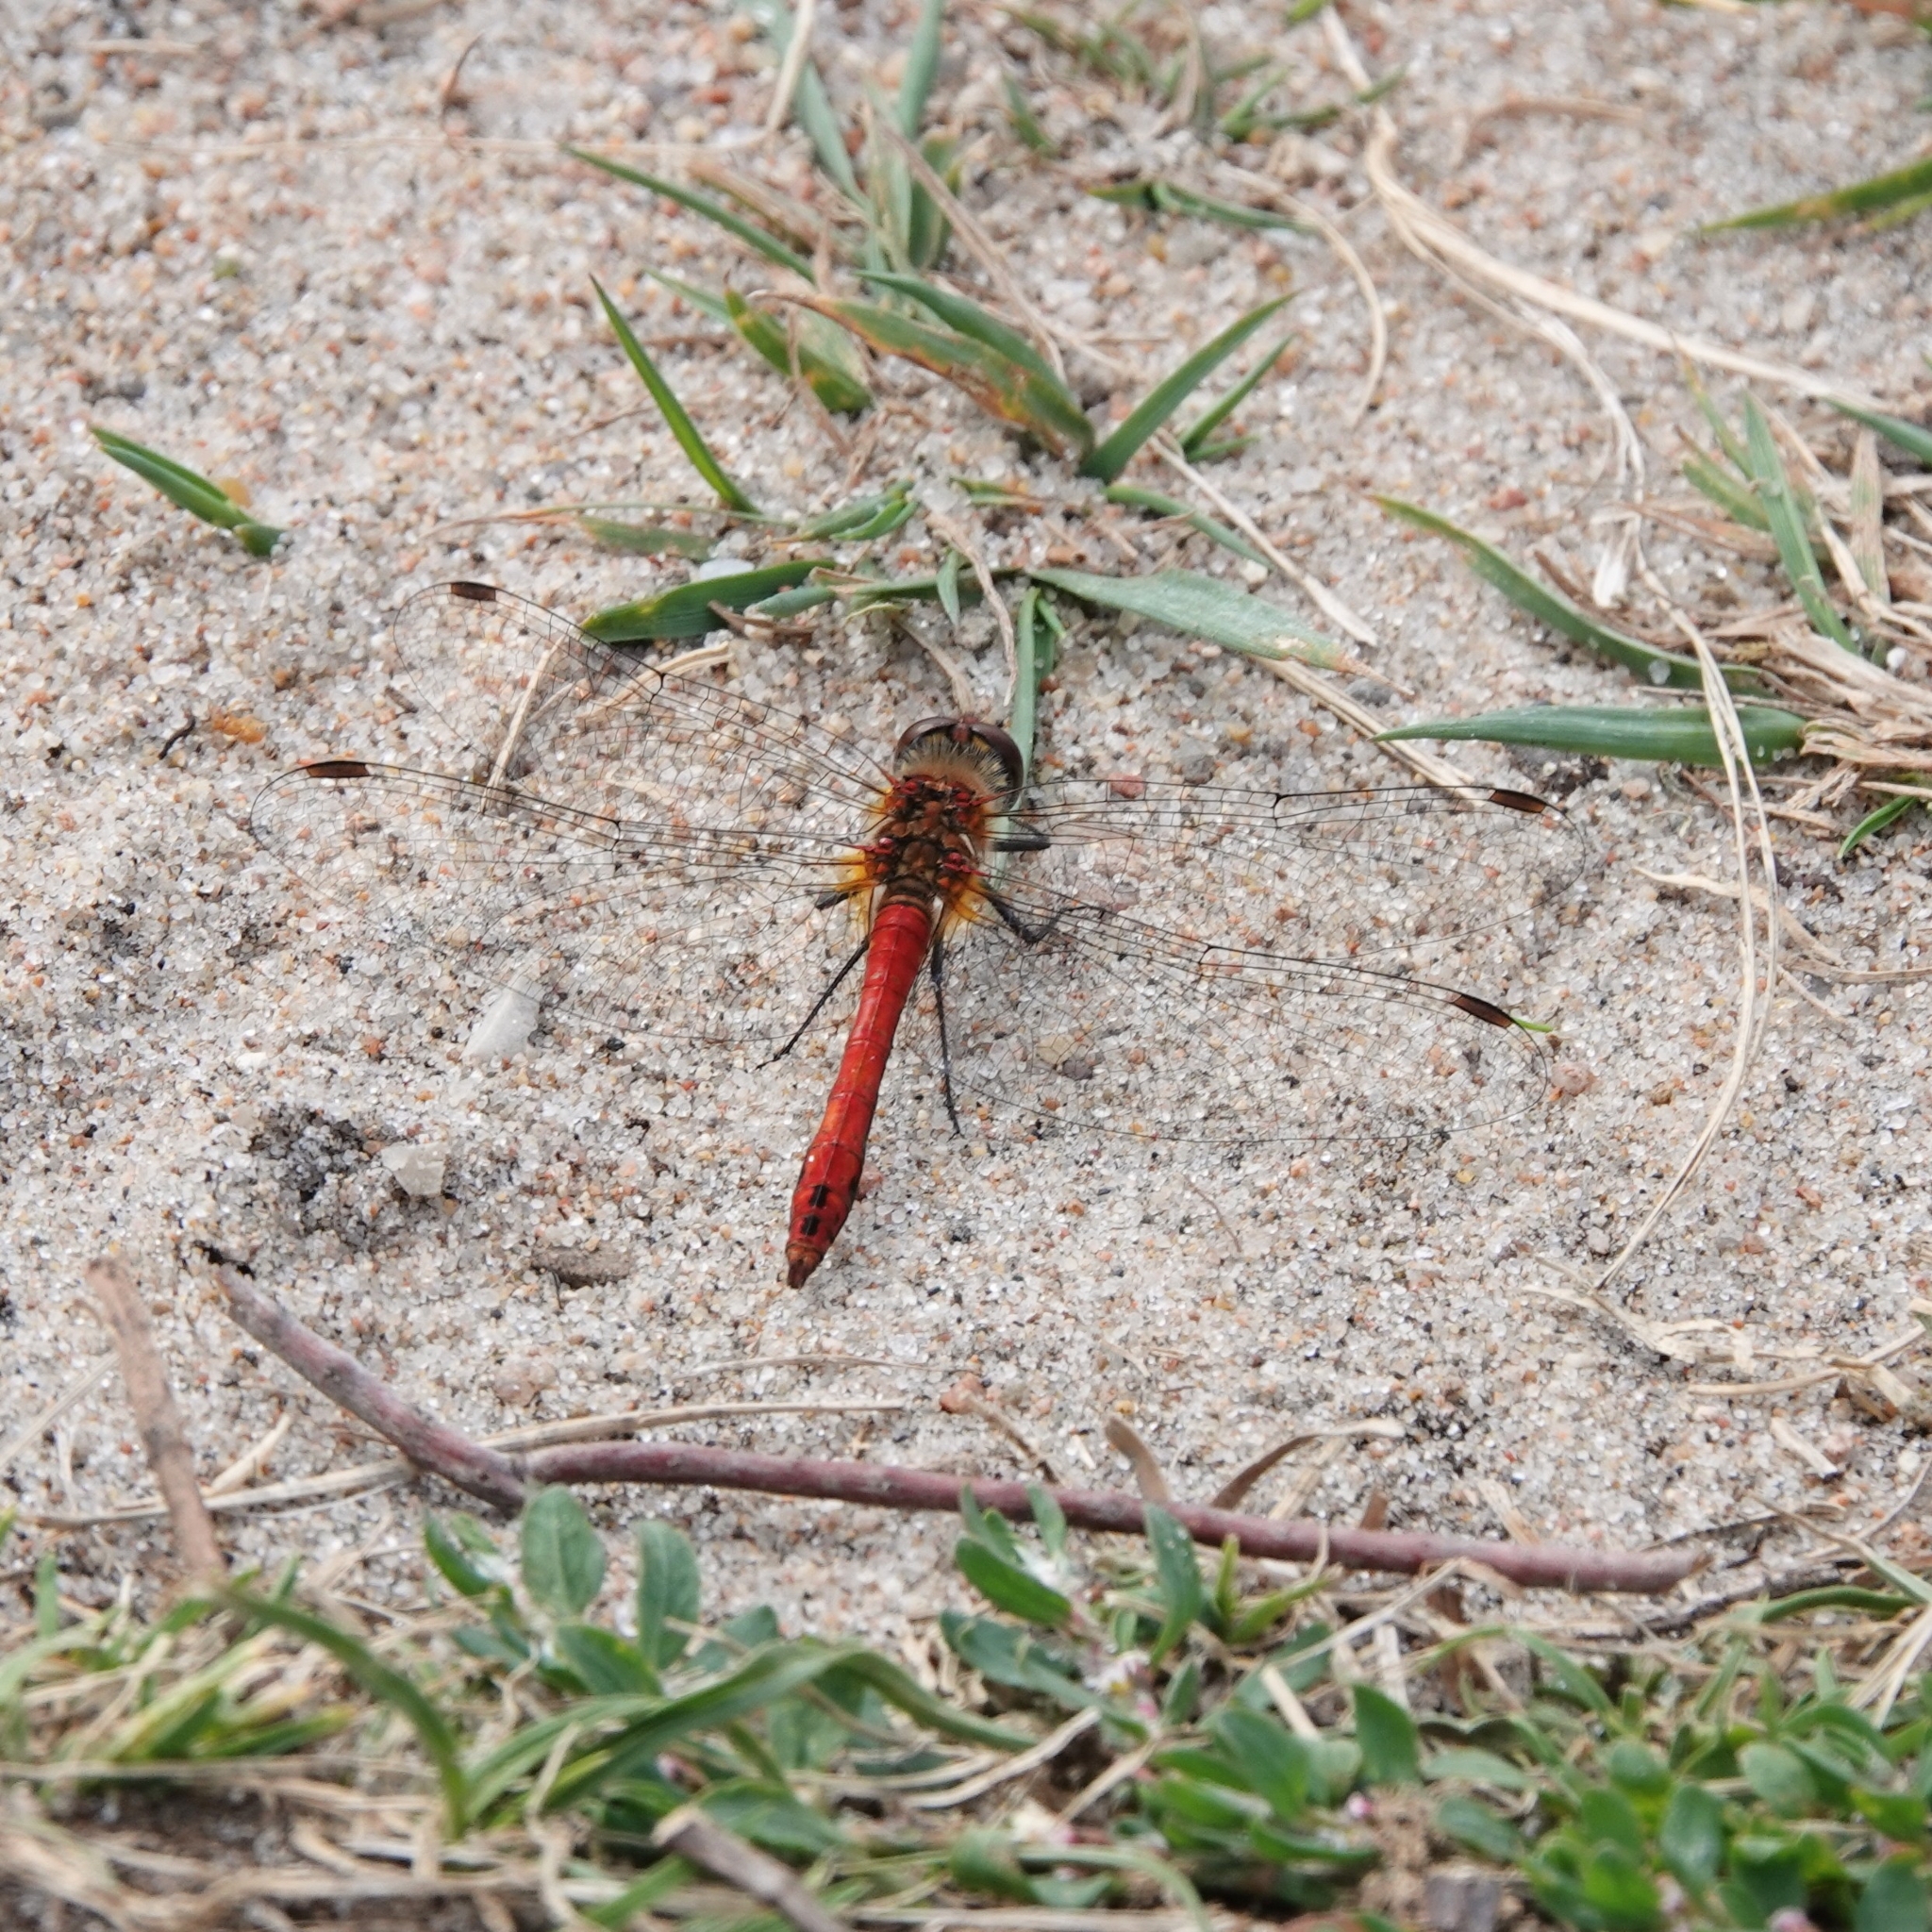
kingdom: Animalia
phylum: Arthropoda
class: Insecta
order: Odonata
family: Libellulidae
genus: Sympetrum
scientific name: Sympetrum sanguineum
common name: Ruddy darter
